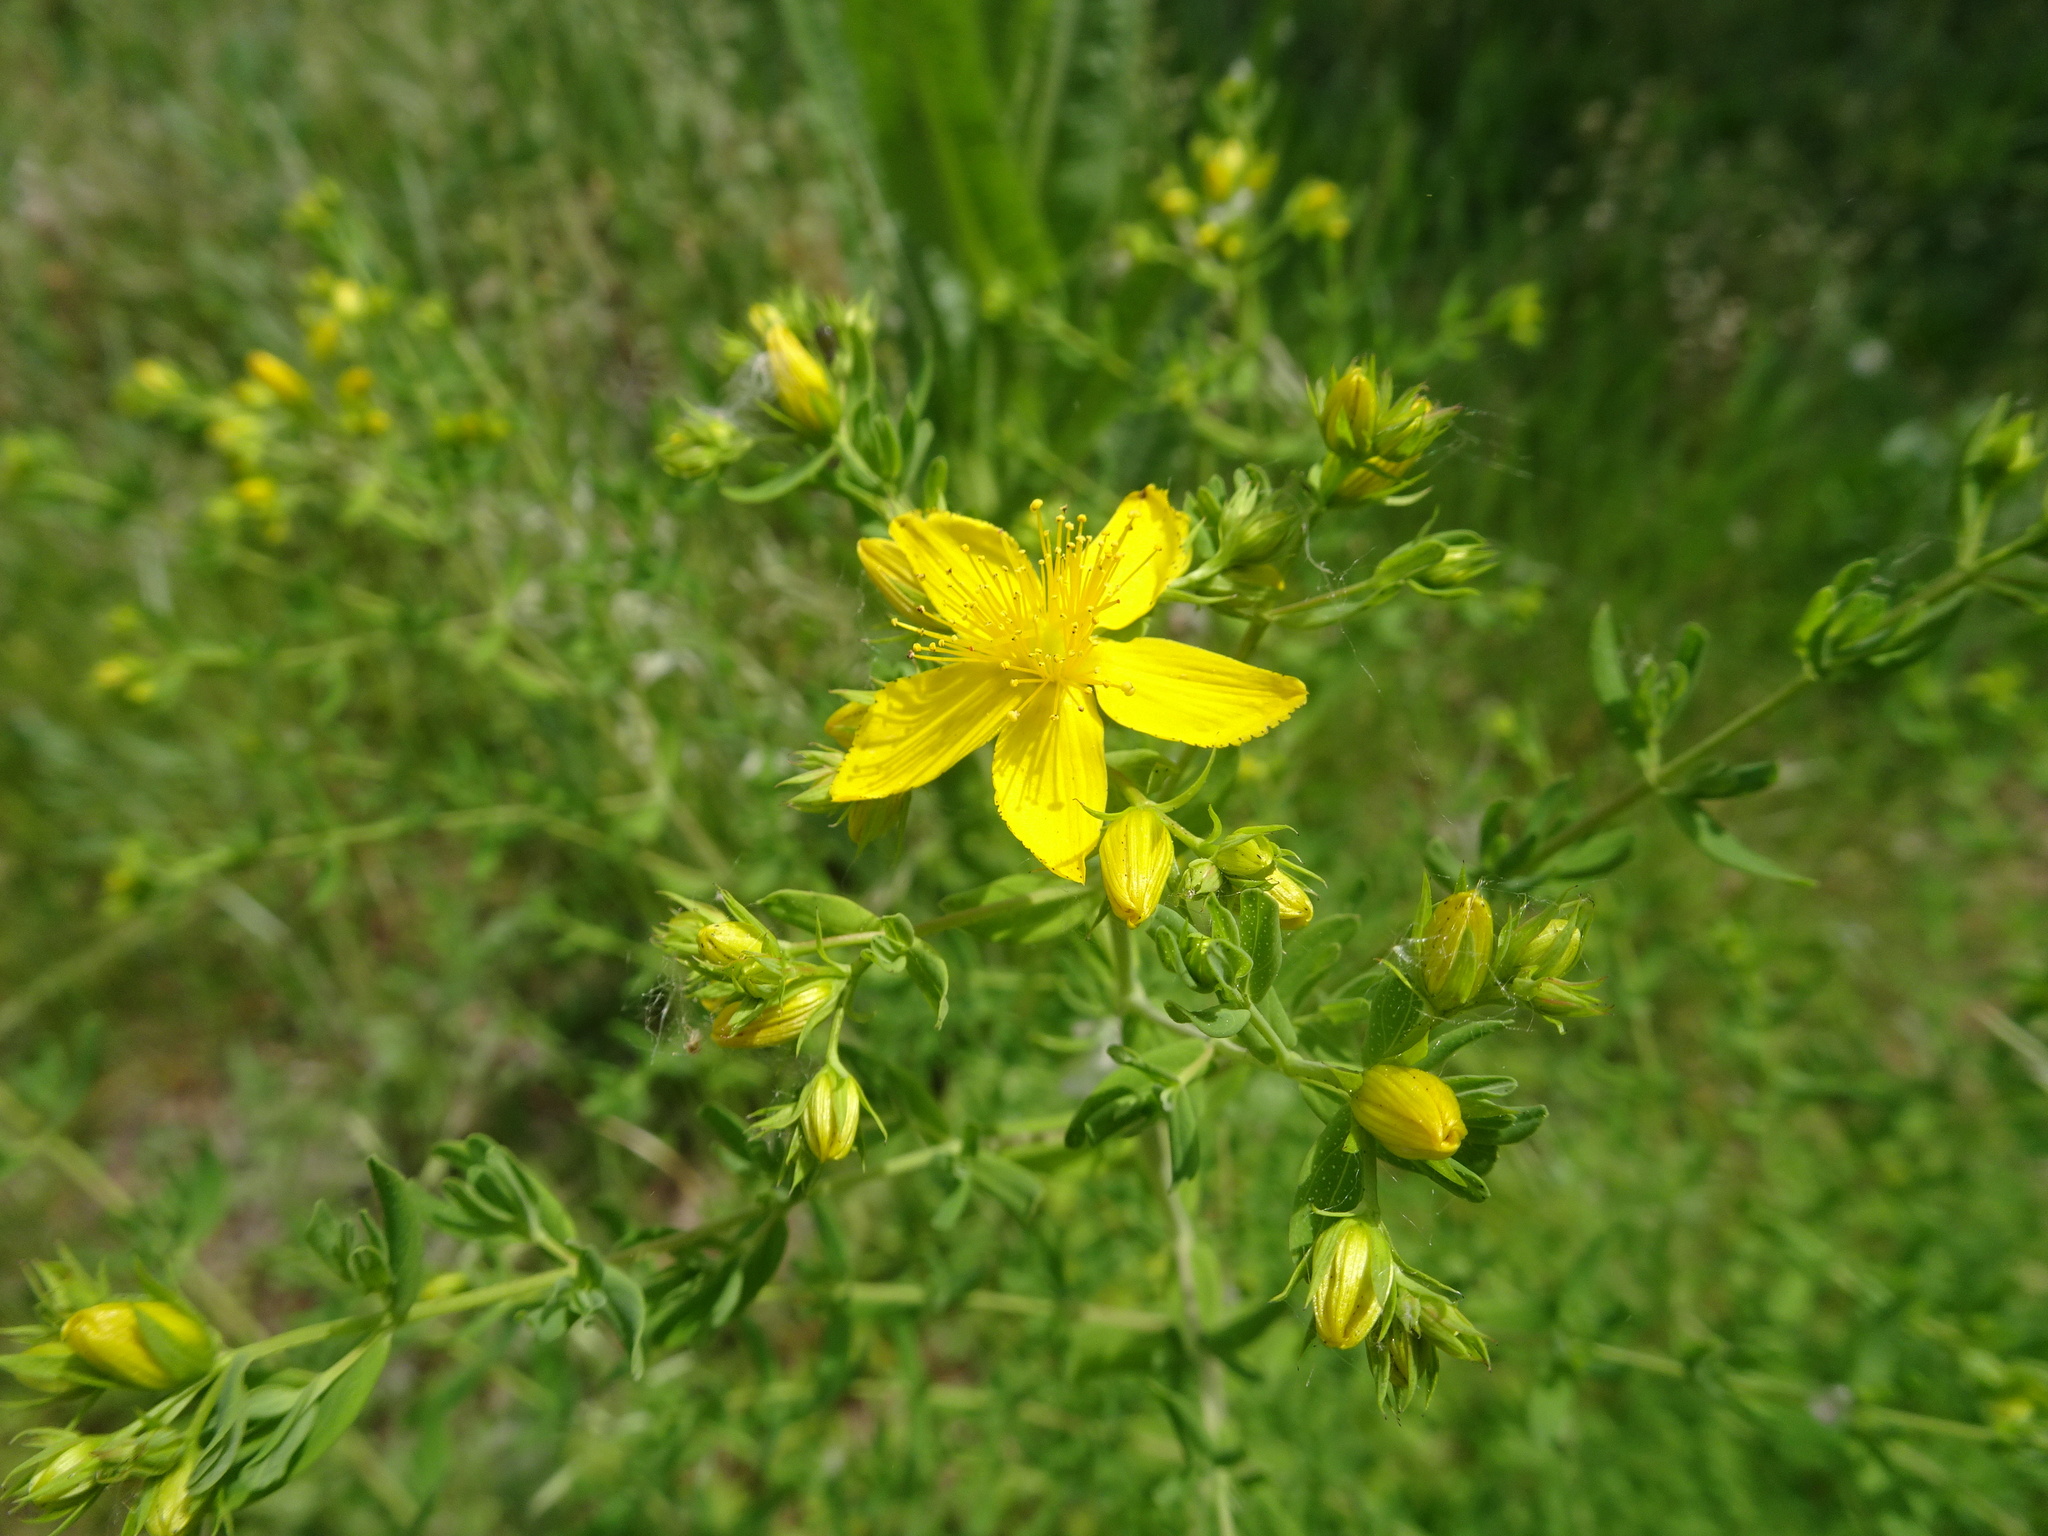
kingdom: Plantae
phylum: Tracheophyta
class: Magnoliopsida
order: Malpighiales
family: Hypericaceae
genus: Hypericum
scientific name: Hypericum perforatum
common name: Common st. johnswort
